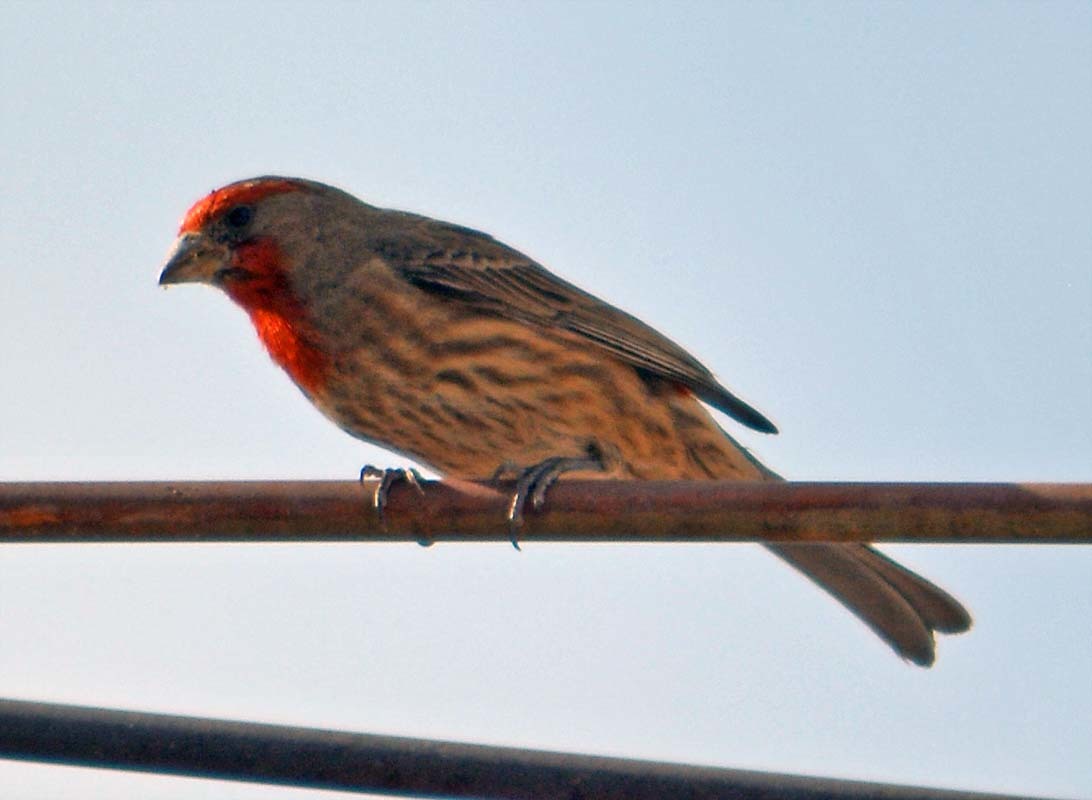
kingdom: Animalia
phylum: Chordata
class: Aves
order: Passeriformes
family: Fringillidae
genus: Haemorhous
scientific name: Haemorhous mexicanus
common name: House finch
